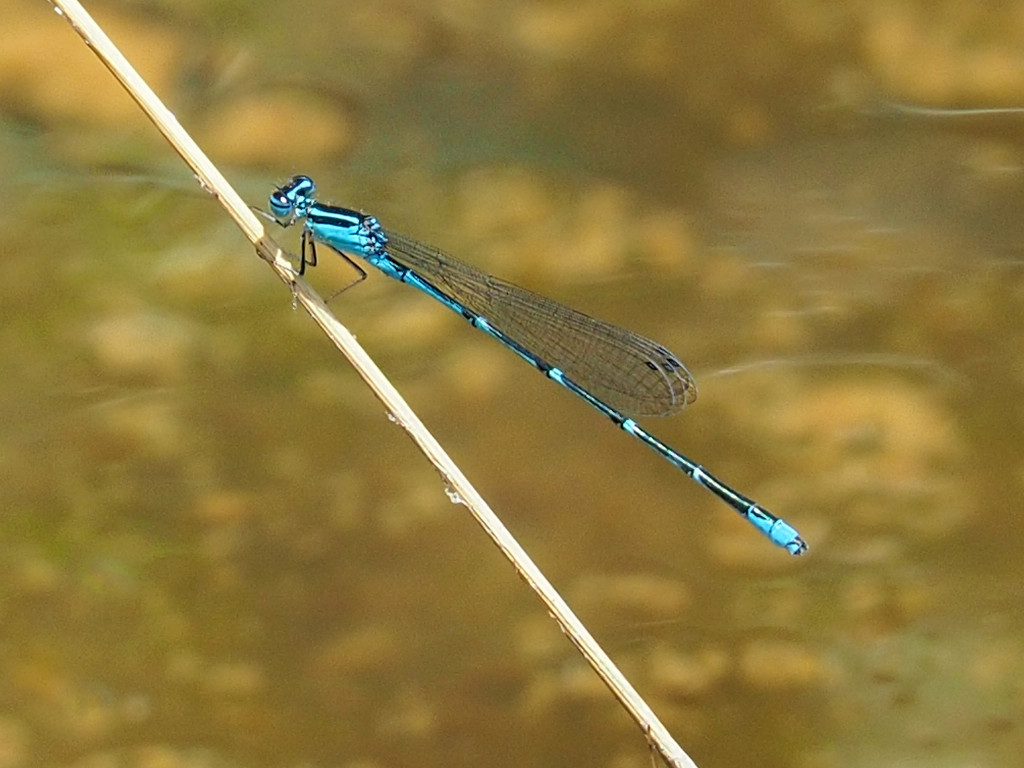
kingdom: Animalia
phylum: Arthropoda
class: Insecta
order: Odonata
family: Coenagrionidae
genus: Enallagma
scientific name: Enallagma exsulans
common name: Stream bluet
